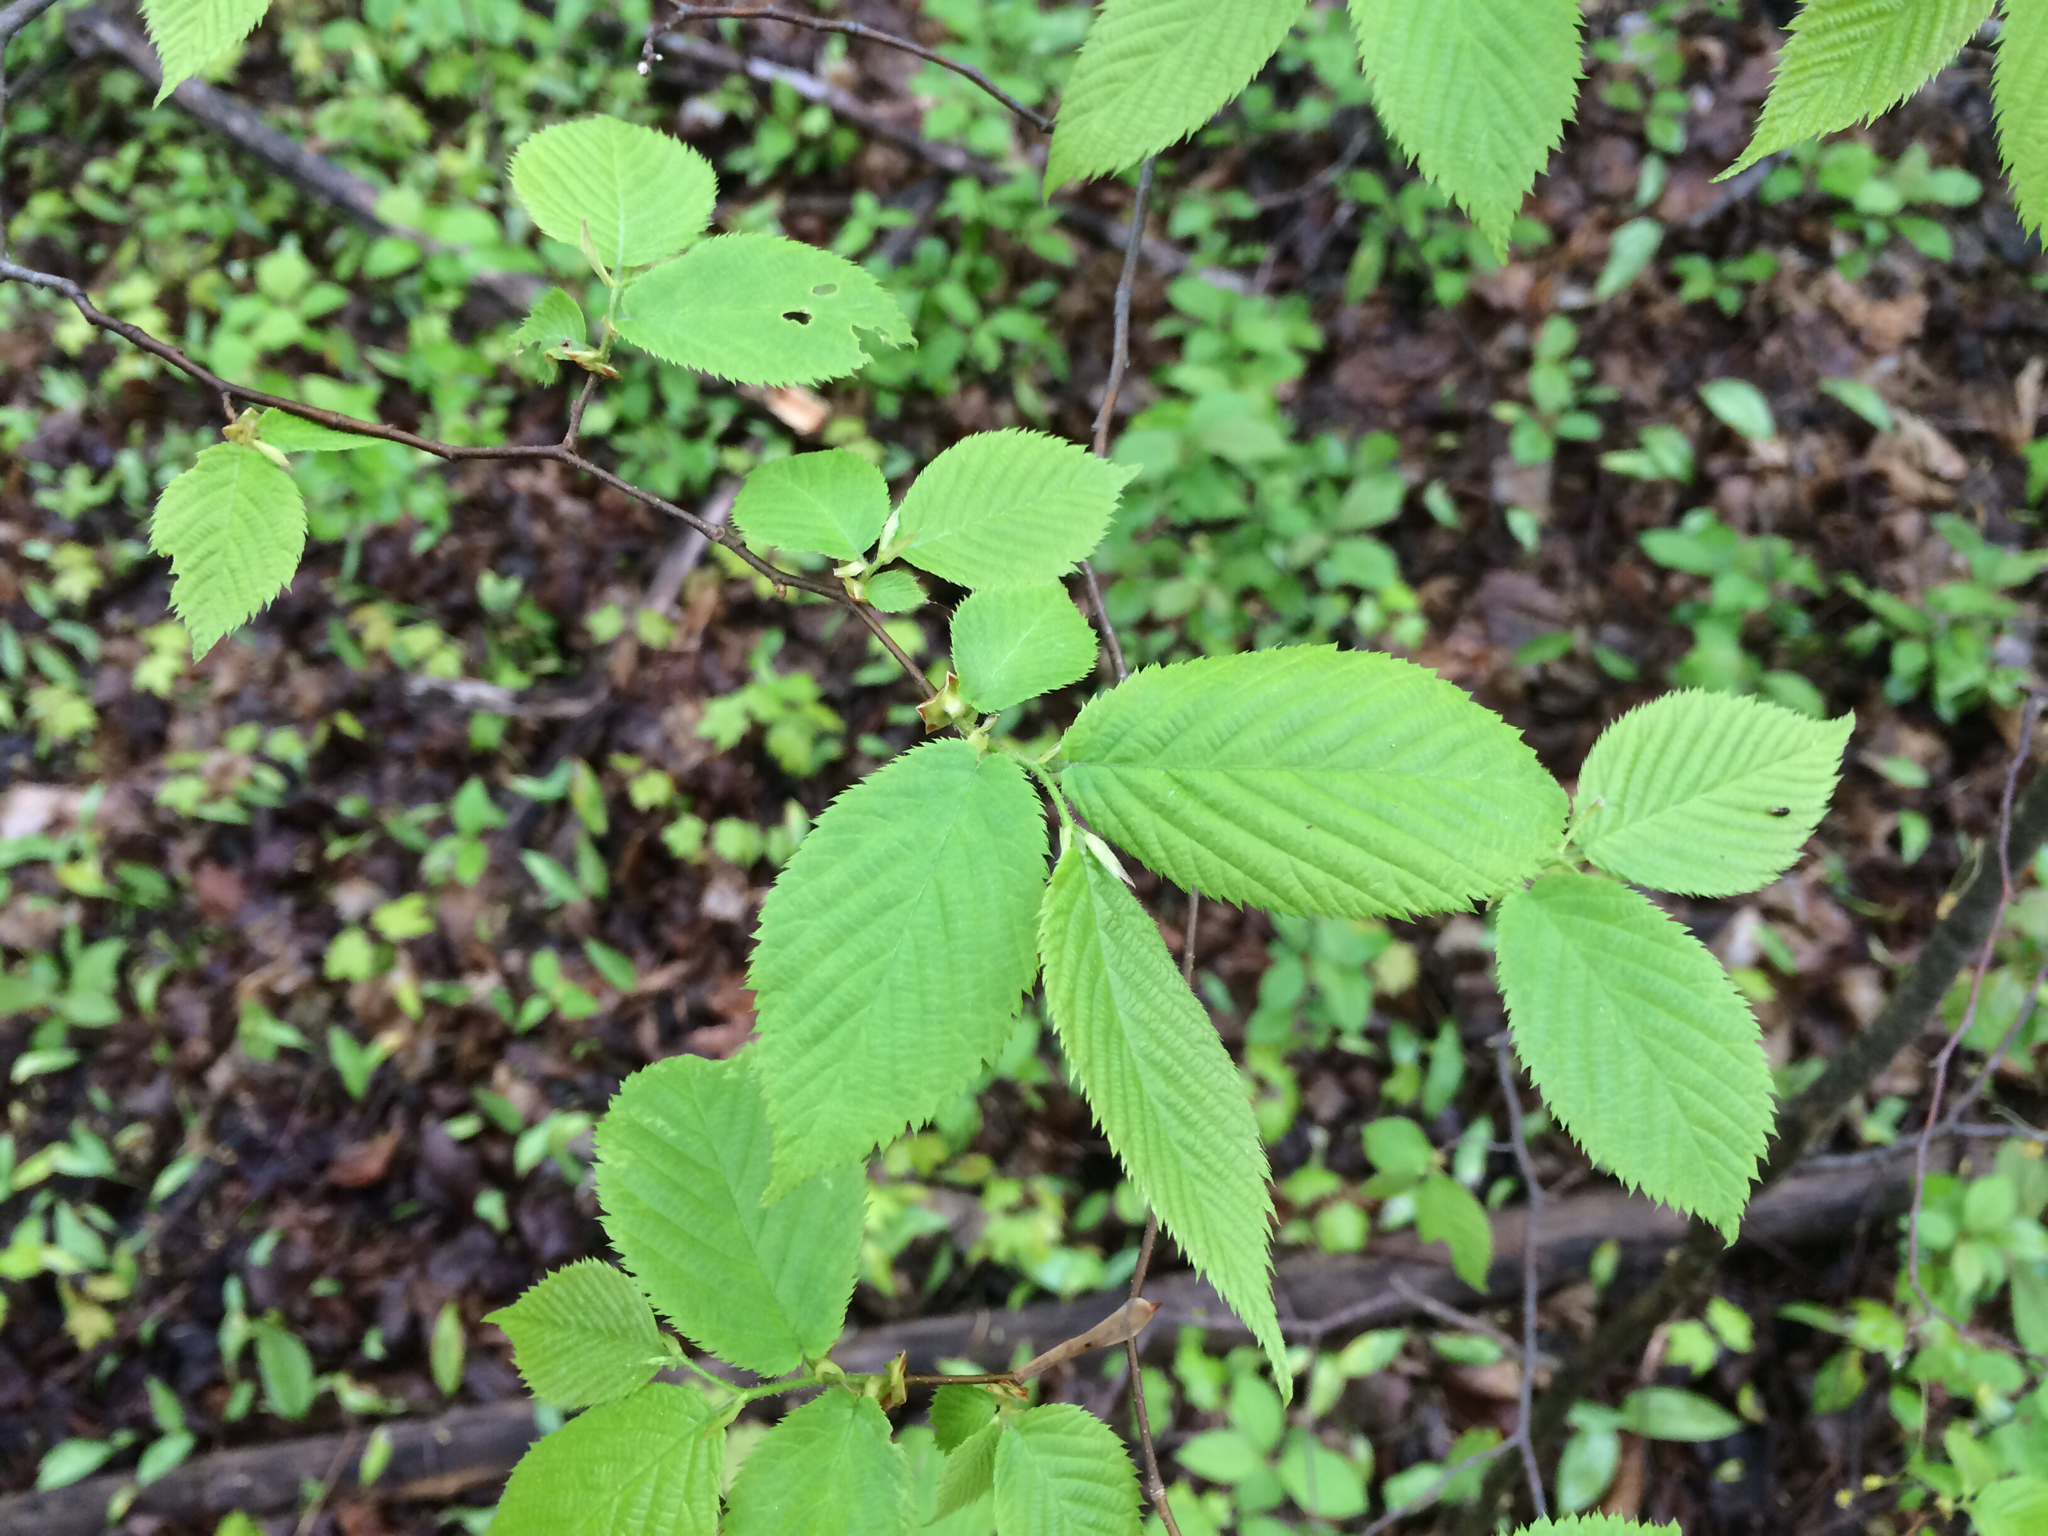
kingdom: Plantae
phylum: Tracheophyta
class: Magnoliopsida
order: Fagales
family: Betulaceae
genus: Ostrya
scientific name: Ostrya virginiana
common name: Ironwood
